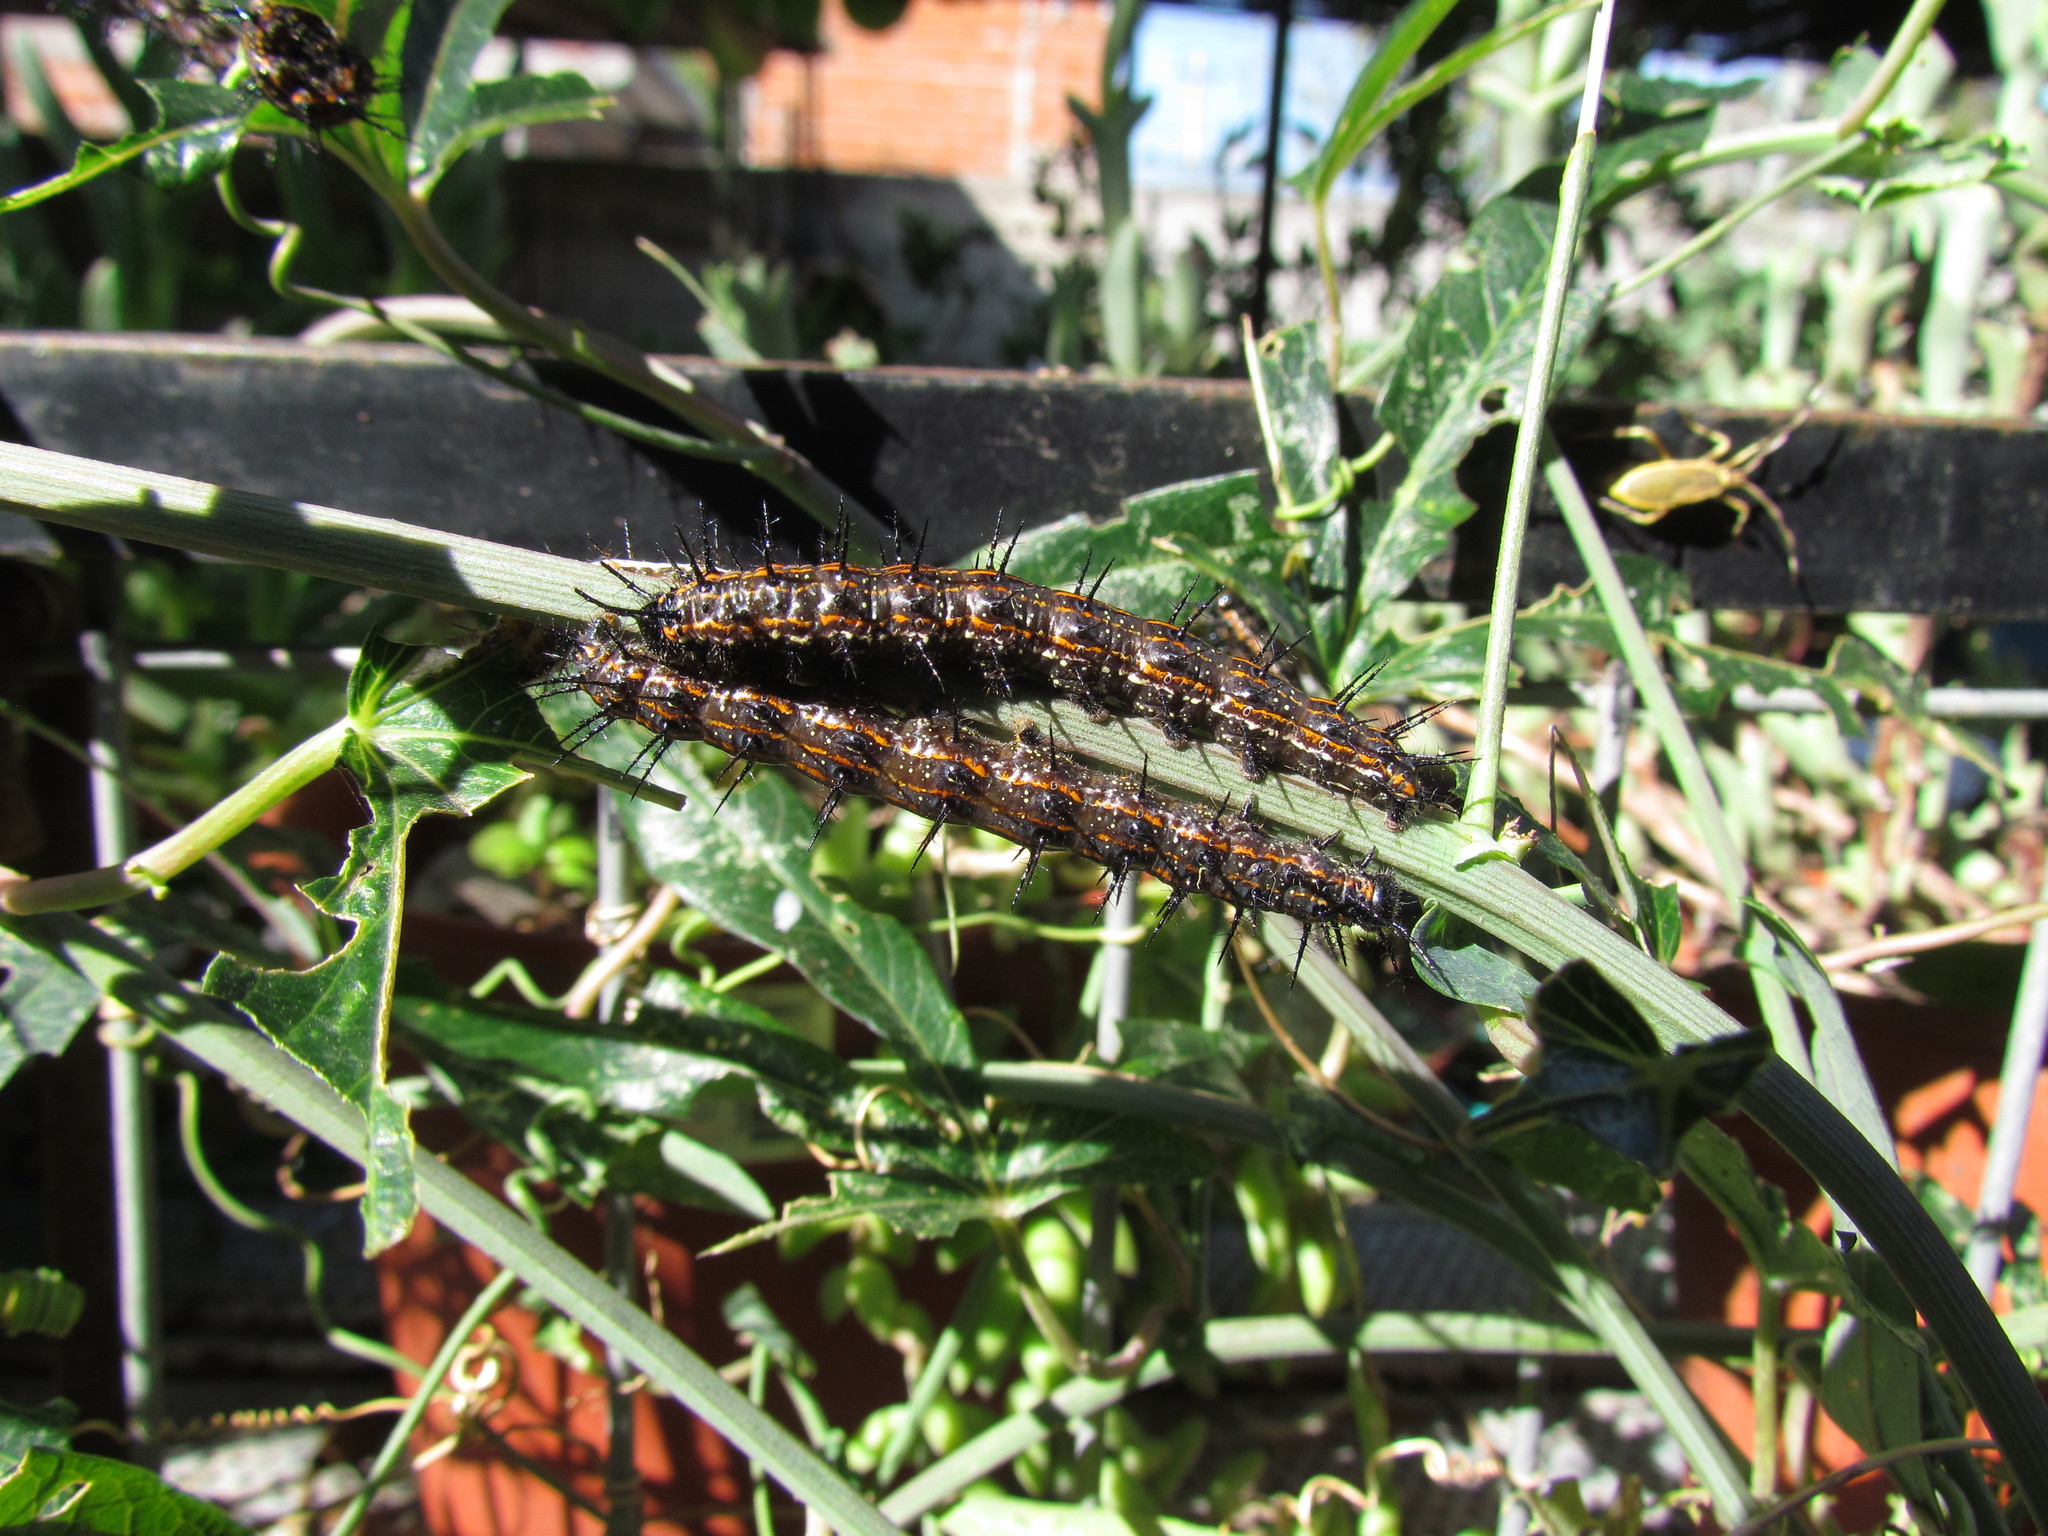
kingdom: Animalia
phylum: Arthropoda
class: Insecta
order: Lepidoptera
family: Nymphalidae
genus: Dione
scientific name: Dione vanillae
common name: Gulf fritillary
